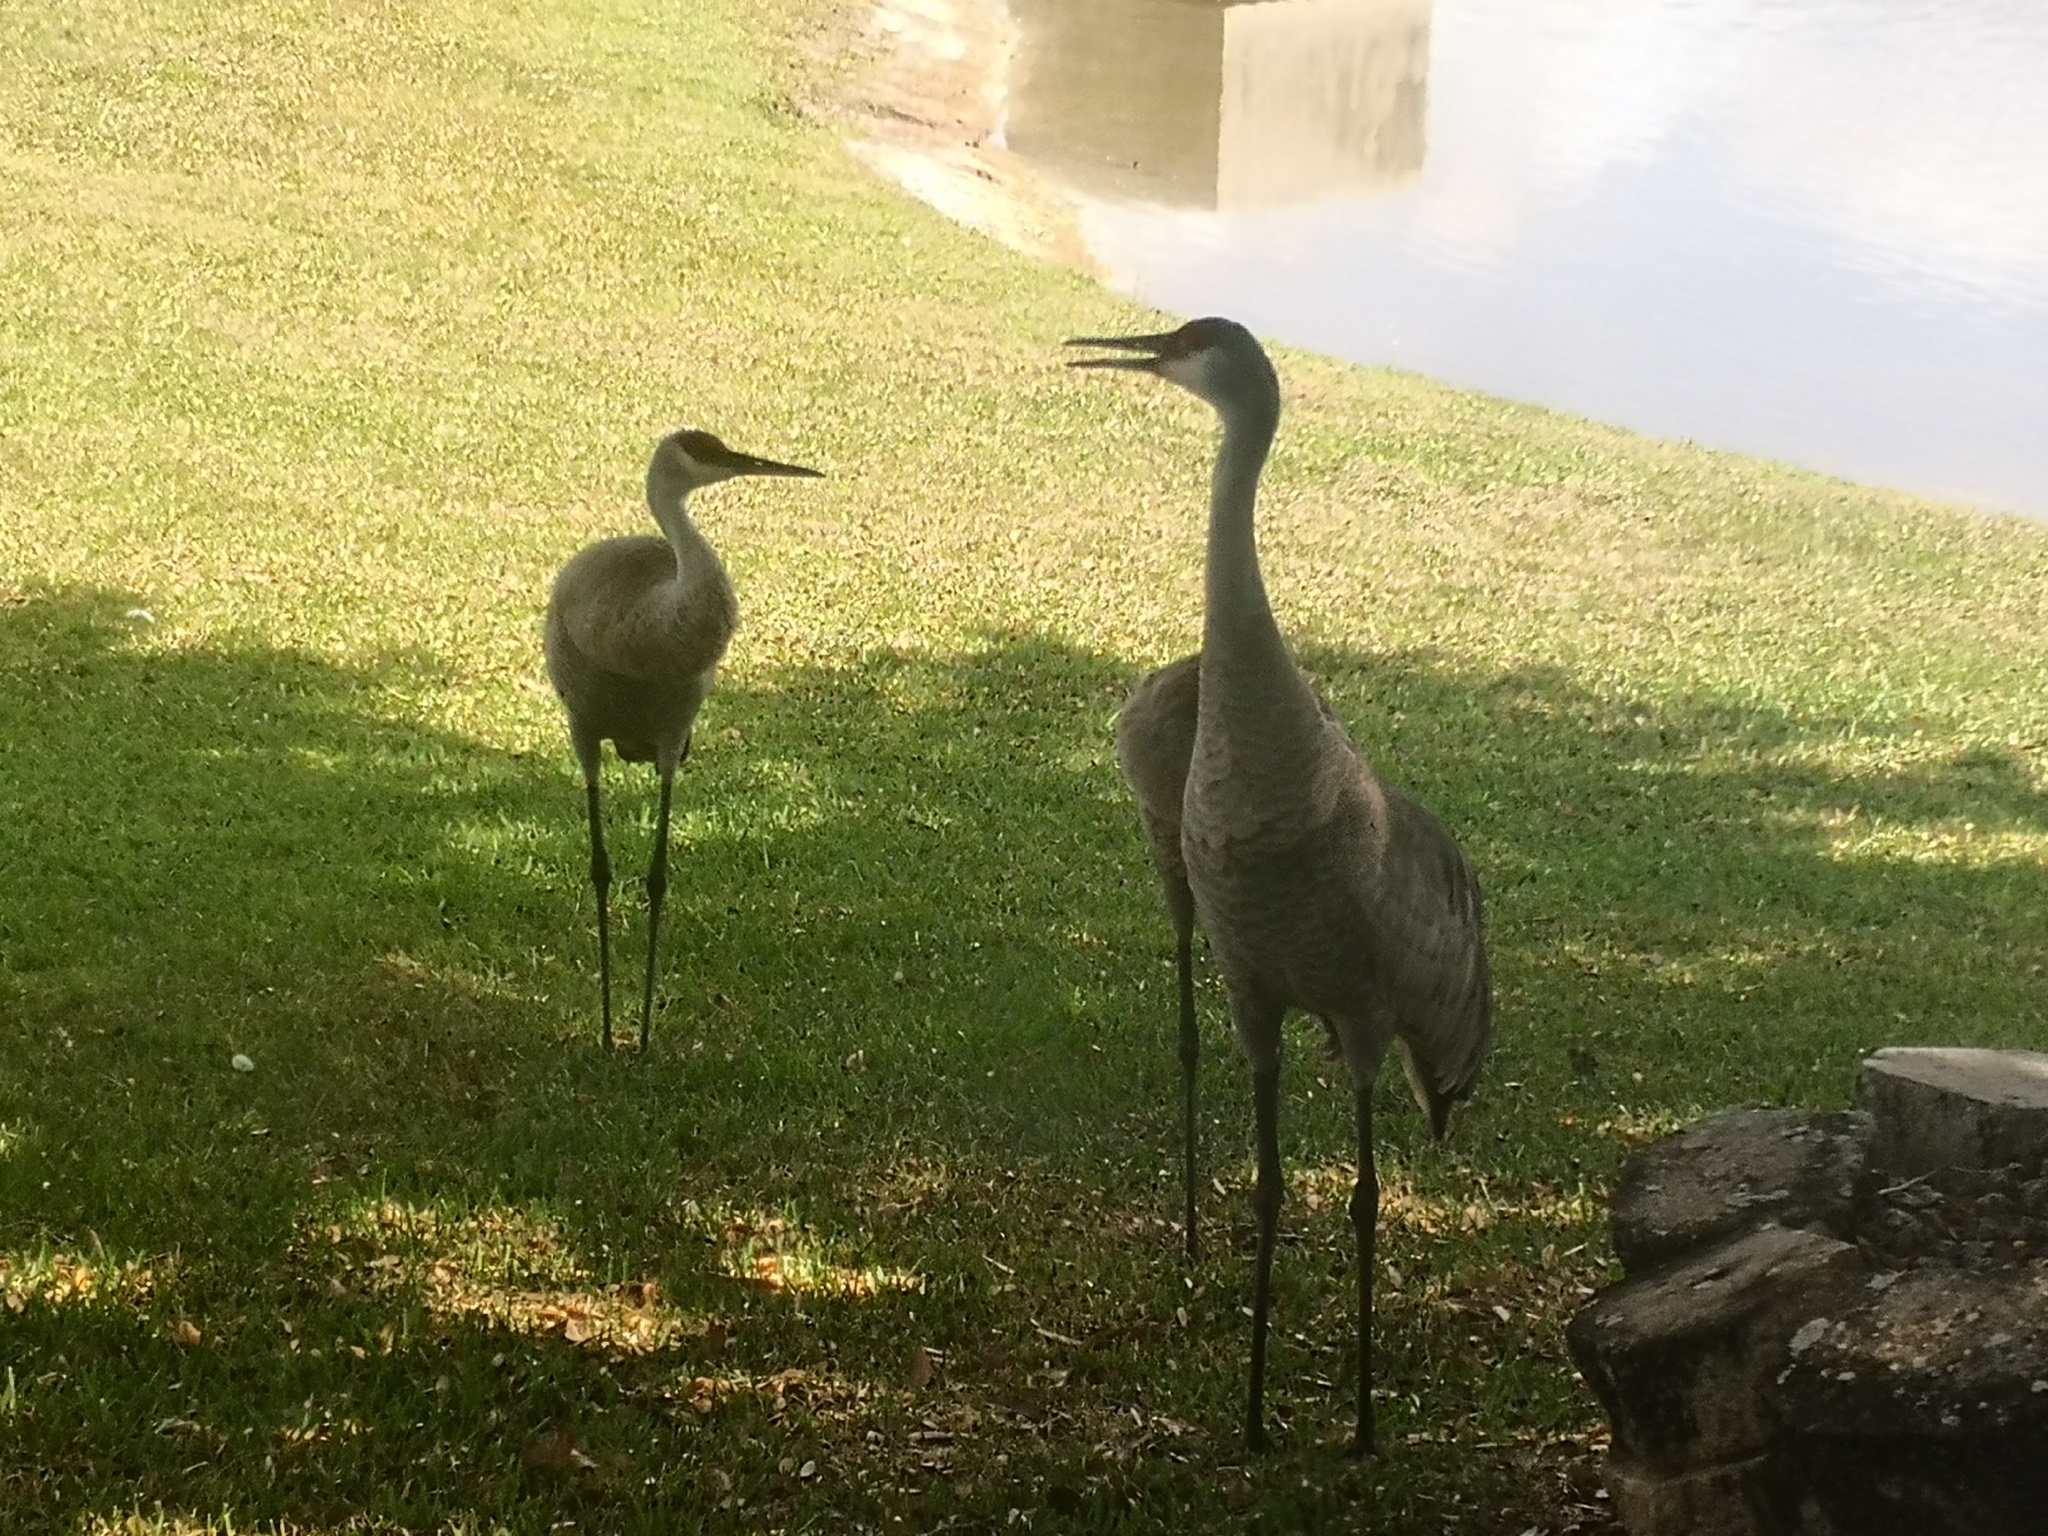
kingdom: Animalia
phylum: Chordata
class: Aves
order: Gruiformes
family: Gruidae
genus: Grus
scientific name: Grus canadensis
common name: Sandhill crane
